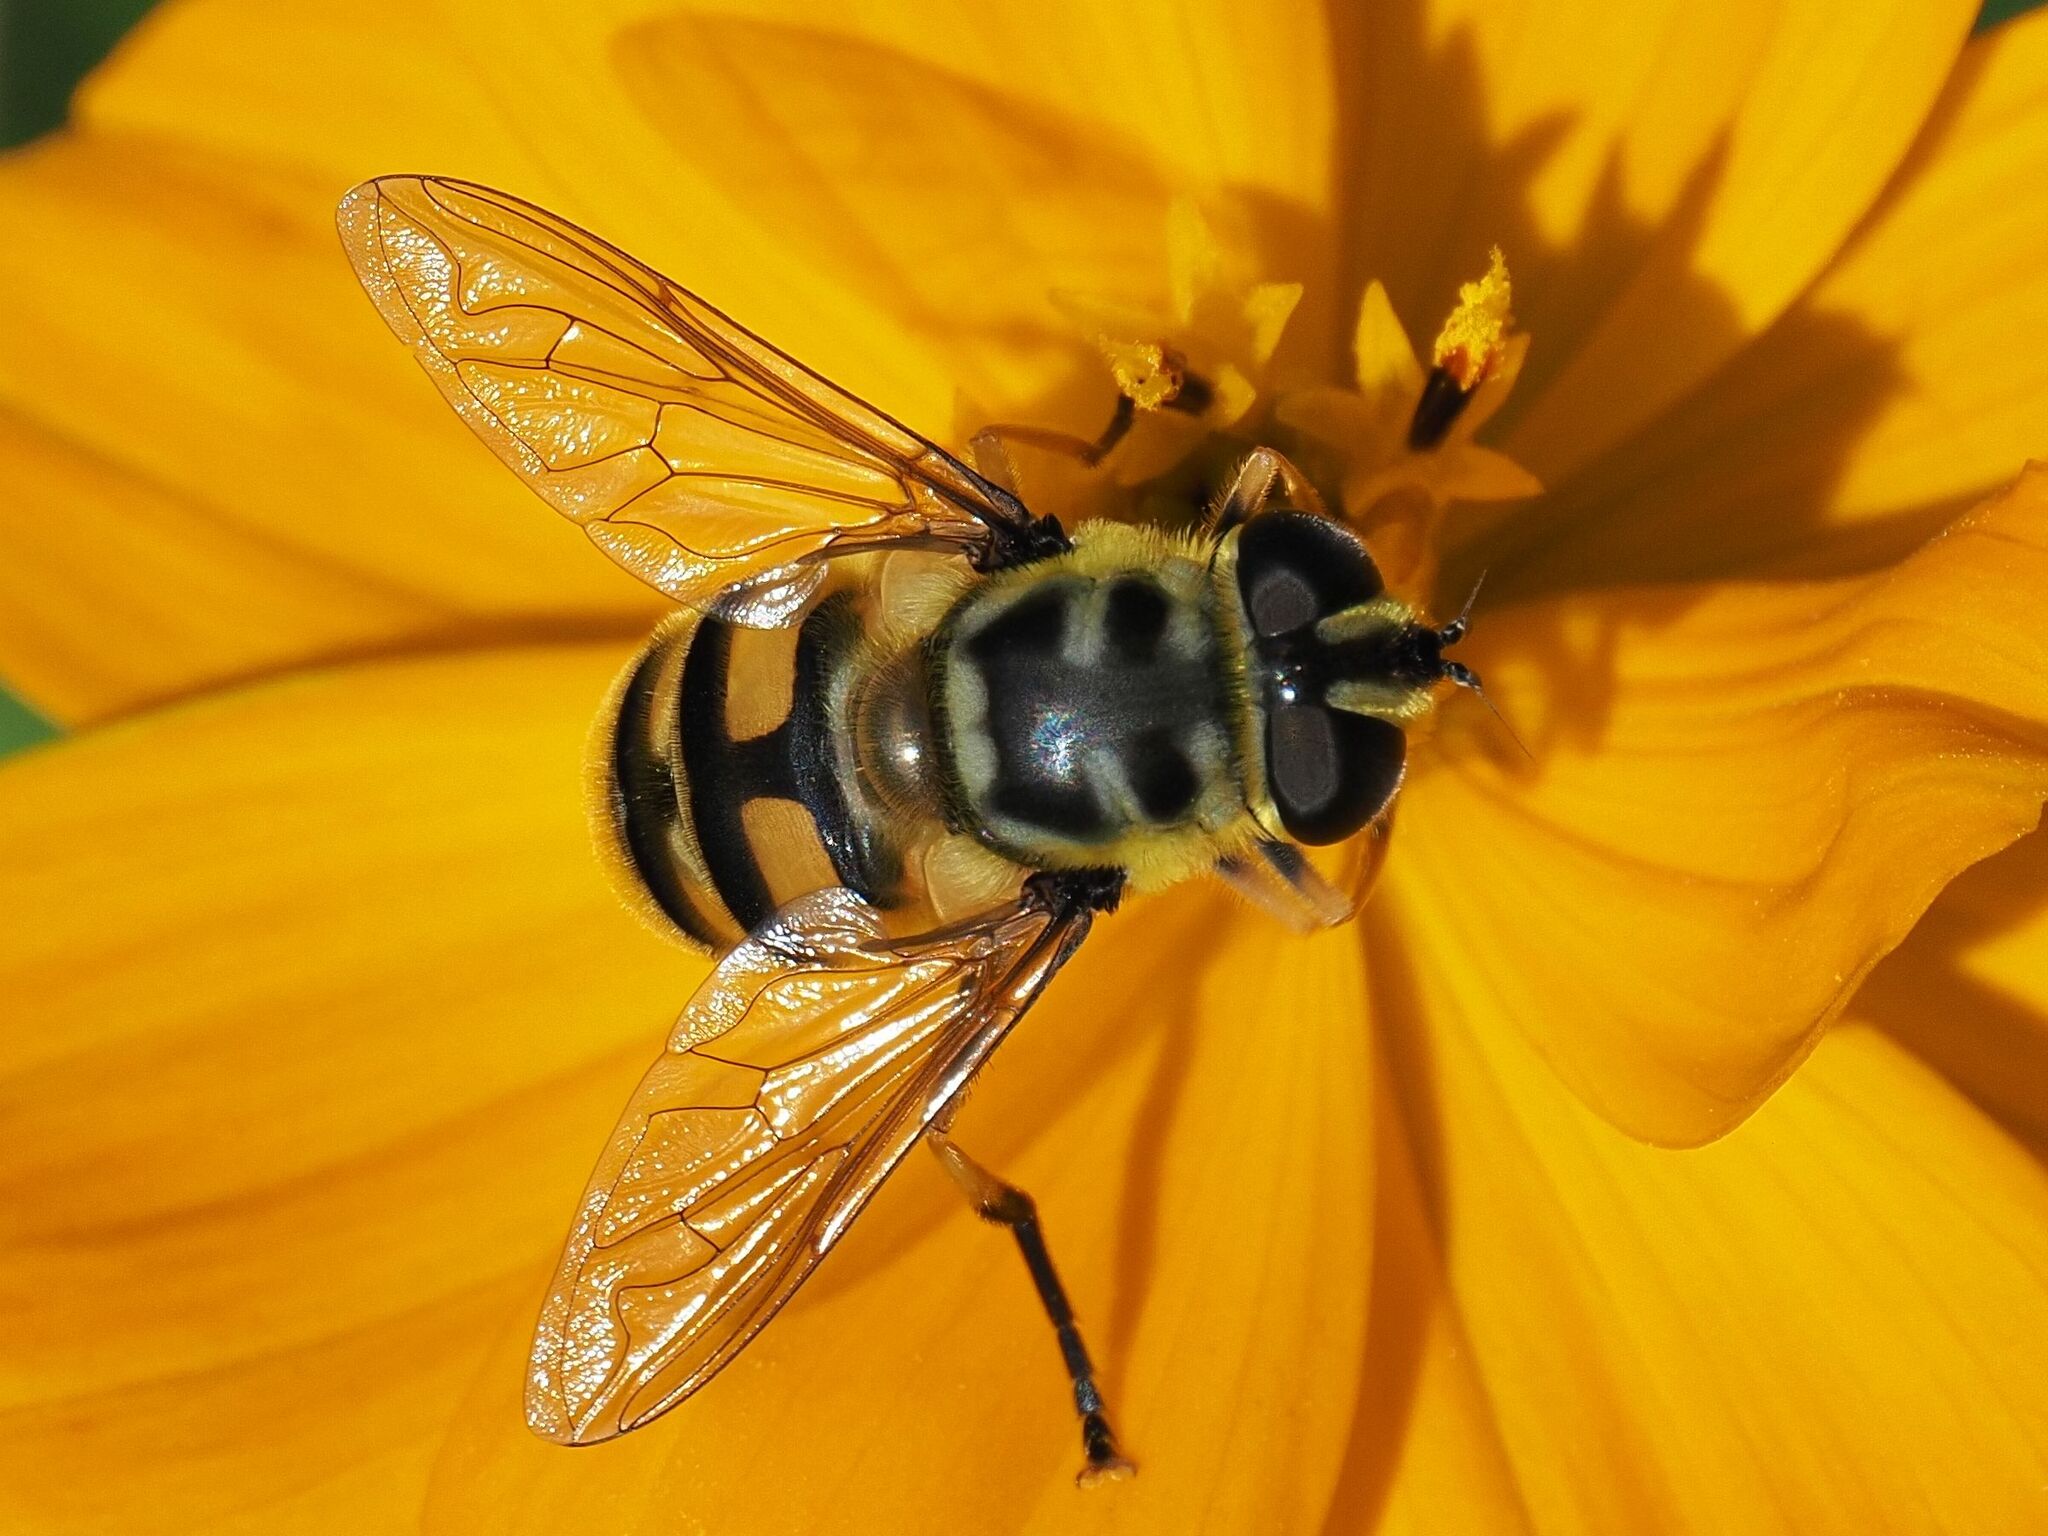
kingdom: Animalia
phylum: Arthropoda
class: Insecta
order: Diptera
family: Syrphidae
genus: Myathropa
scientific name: Myathropa florea
